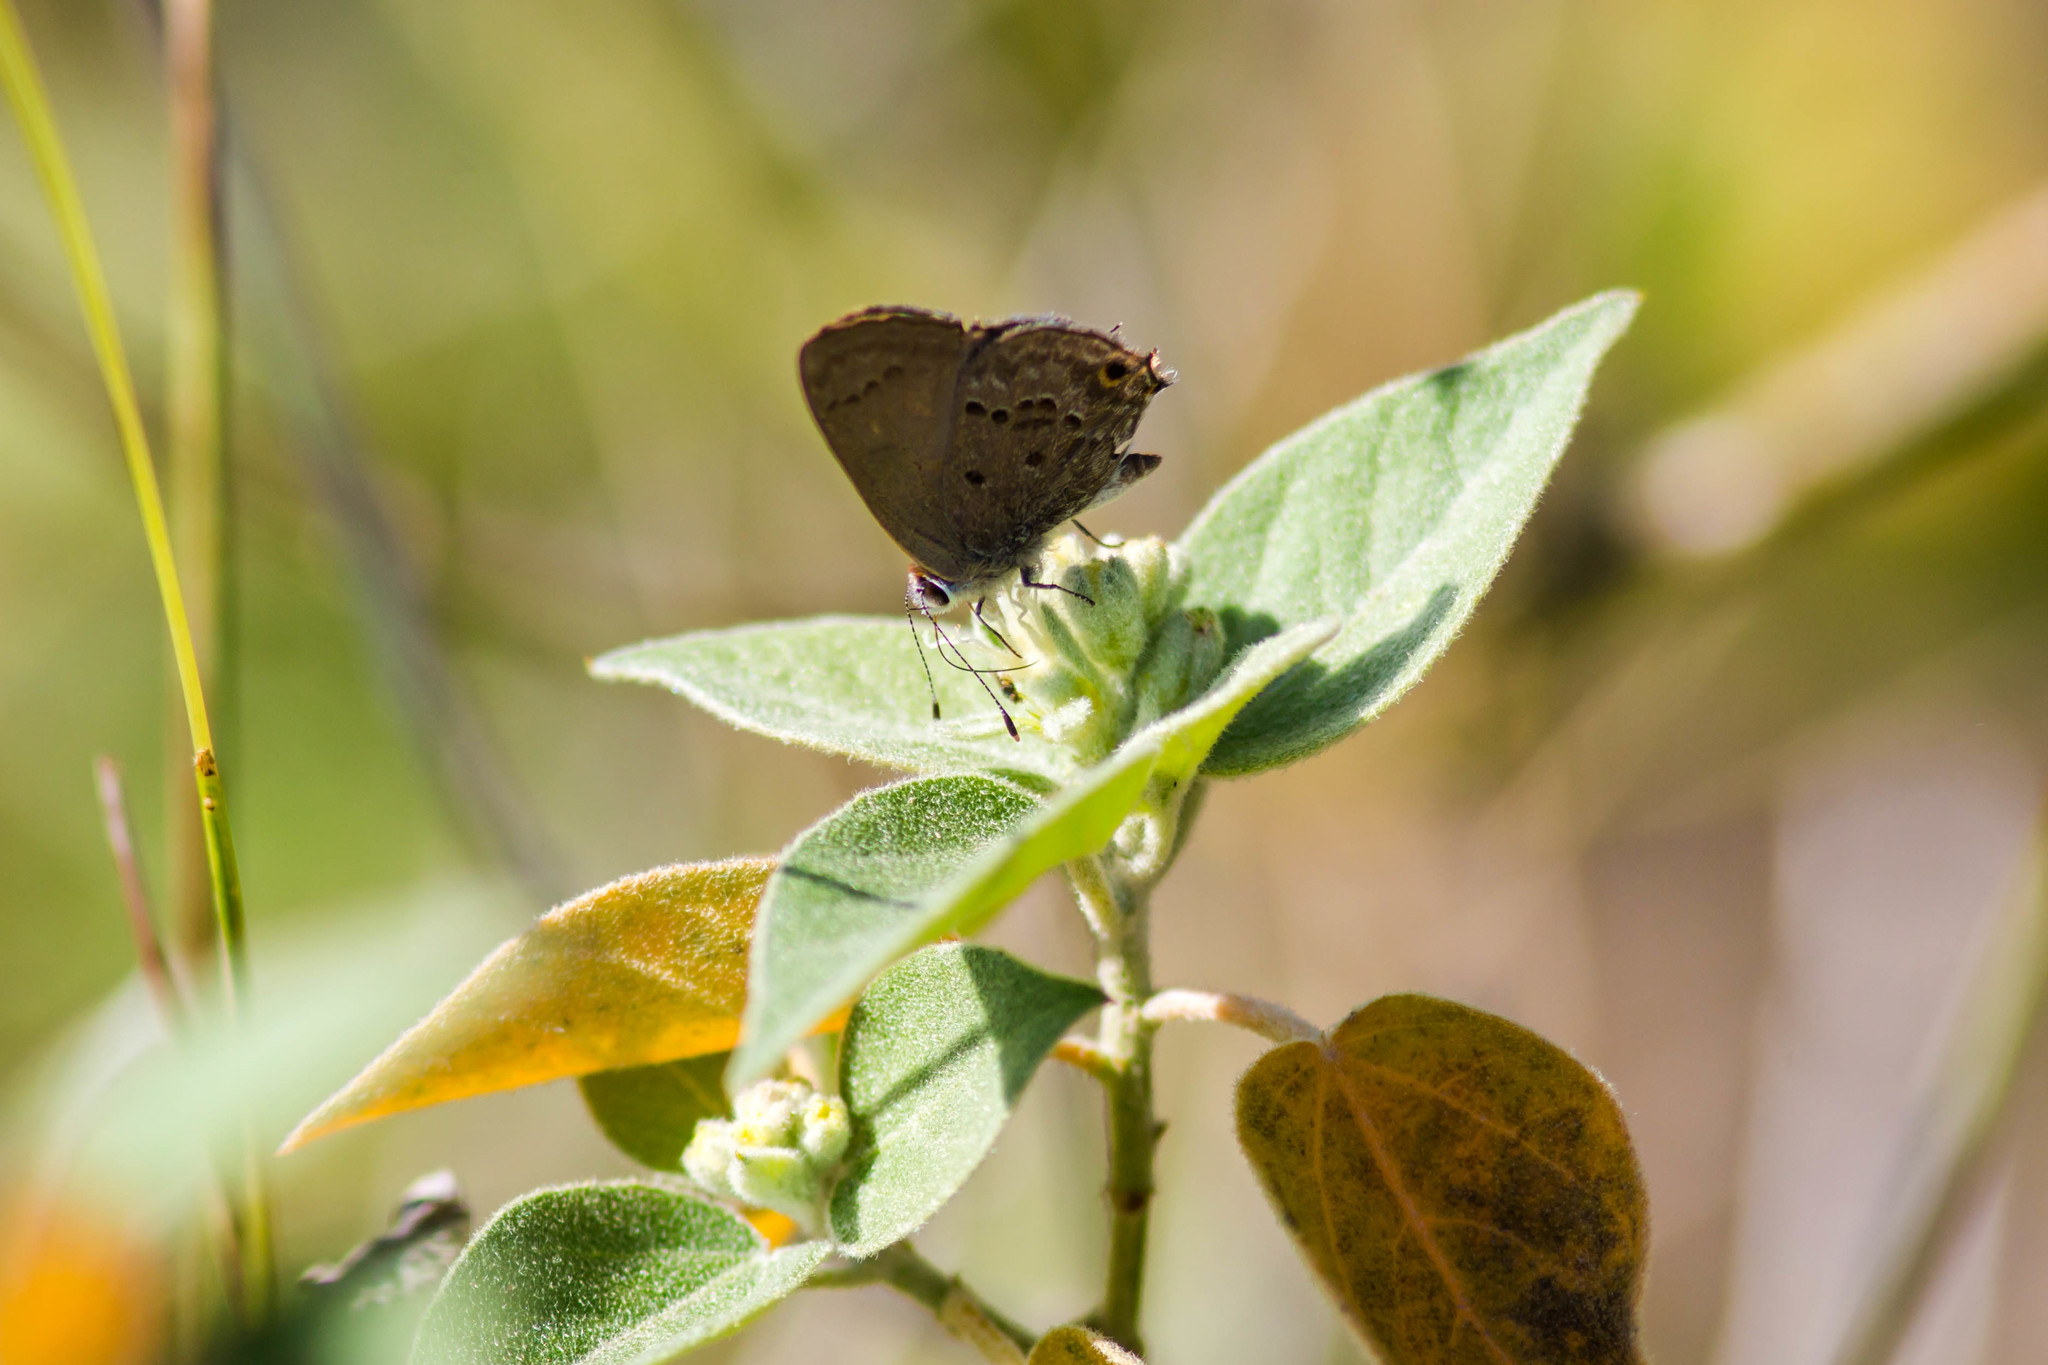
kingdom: Animalia
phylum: Arthropoda
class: Insecta
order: Lepidoptera
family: Lycaenidae
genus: Callicista
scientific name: Callicista columella
